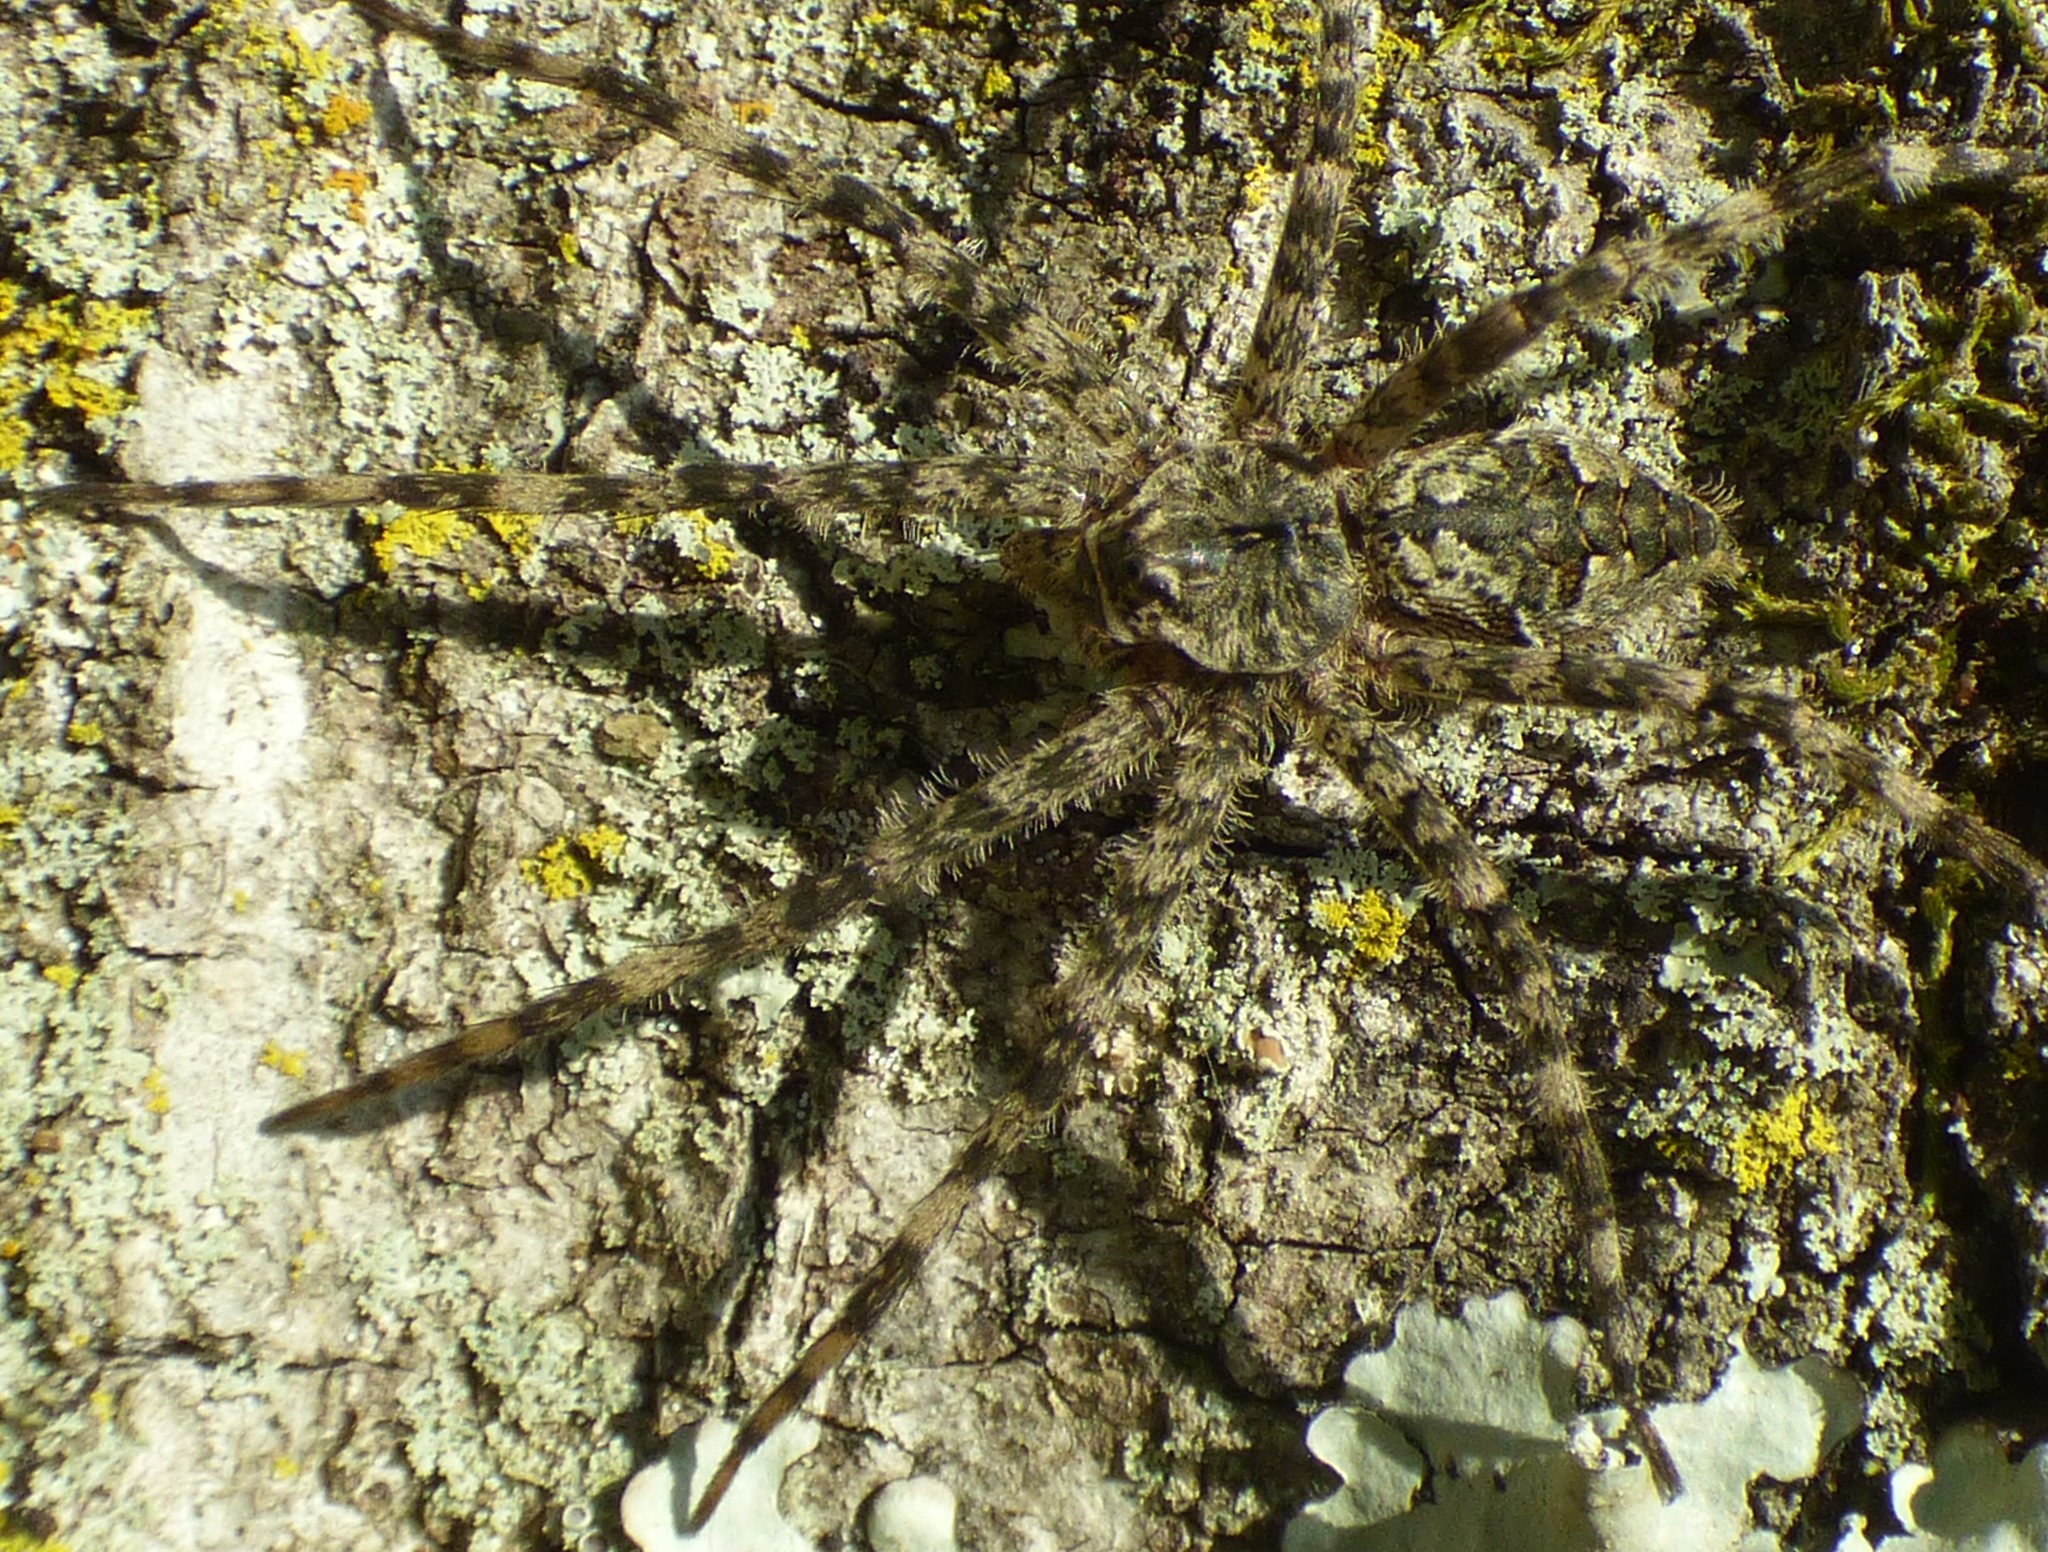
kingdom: Animalia
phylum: Arthropoda
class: Arachnida
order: Araneae
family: Pisauridae
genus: Dolomedes
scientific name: Dolomedes albineus
